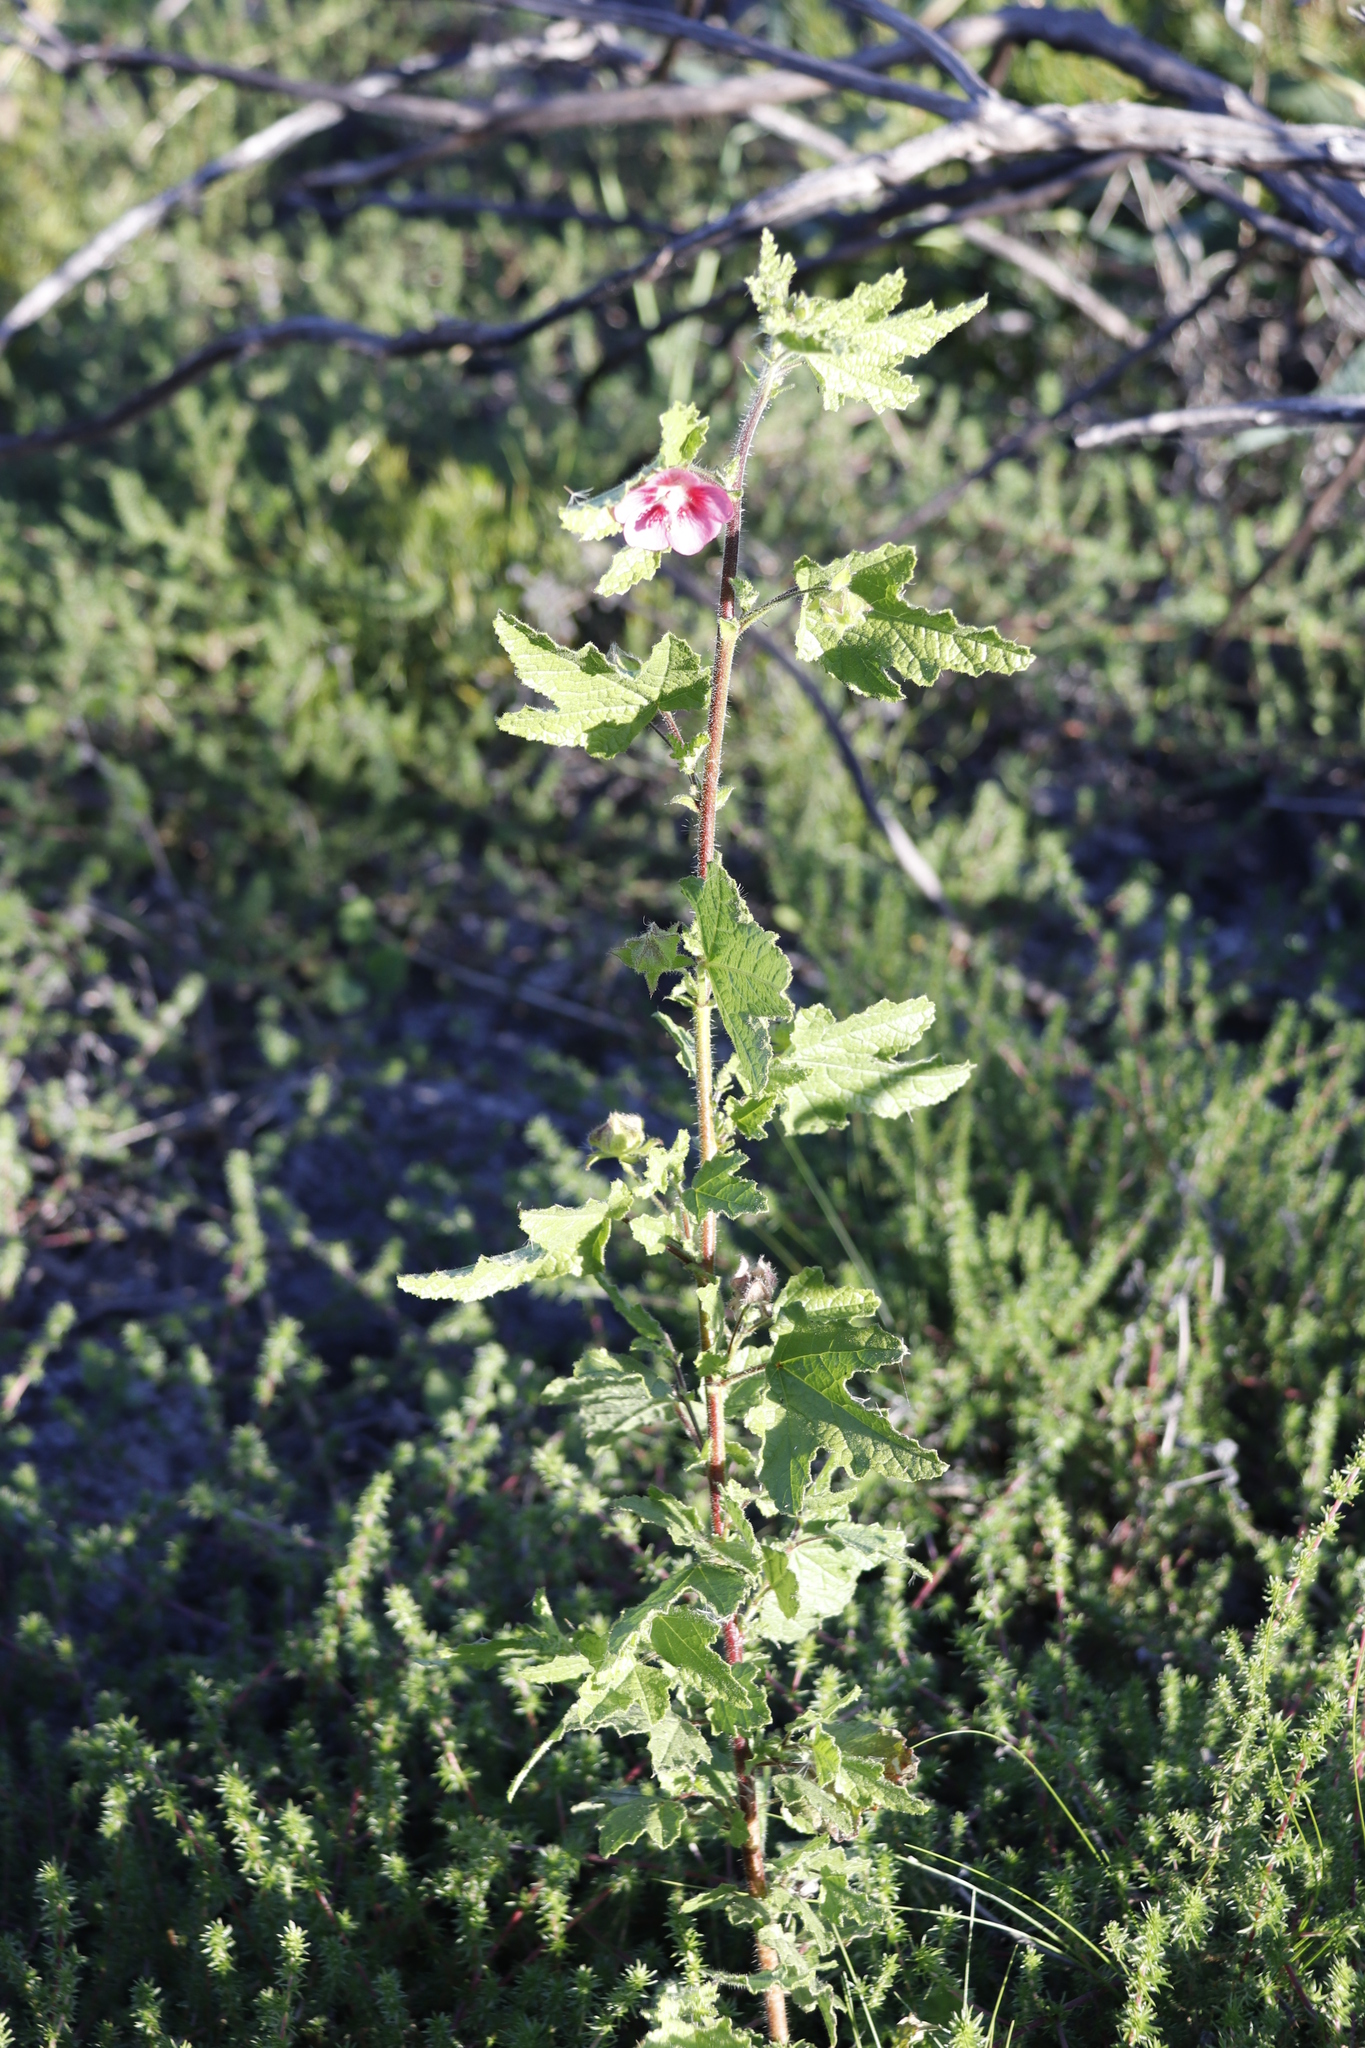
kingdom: Plantae
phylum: Tracheophyta
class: Magnoliopsida
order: Malvales
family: Malvaceae
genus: Anisodontea
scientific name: Anisodontea scabrosa
